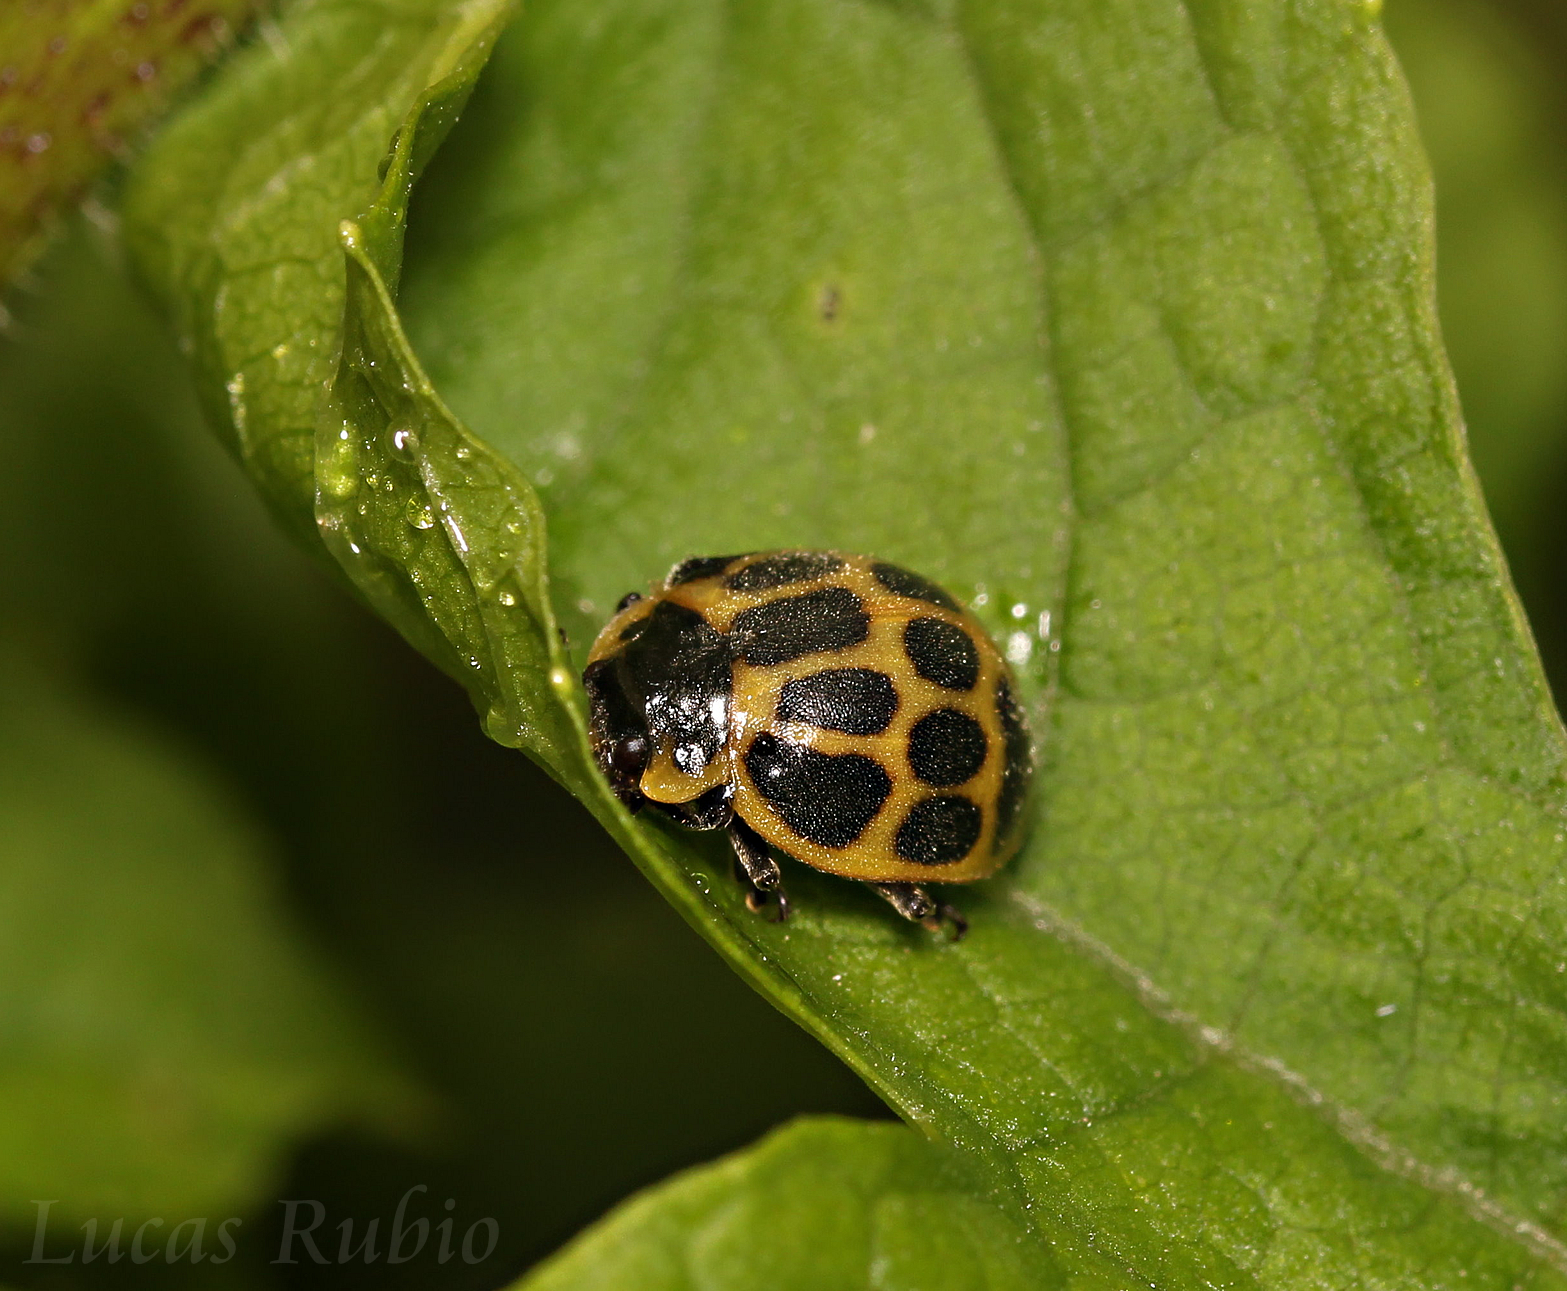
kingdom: Animalia
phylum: Arthropoda
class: Insecta
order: Coleoptera
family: Coccinellidae
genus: Epilachna
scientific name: Epilachna
